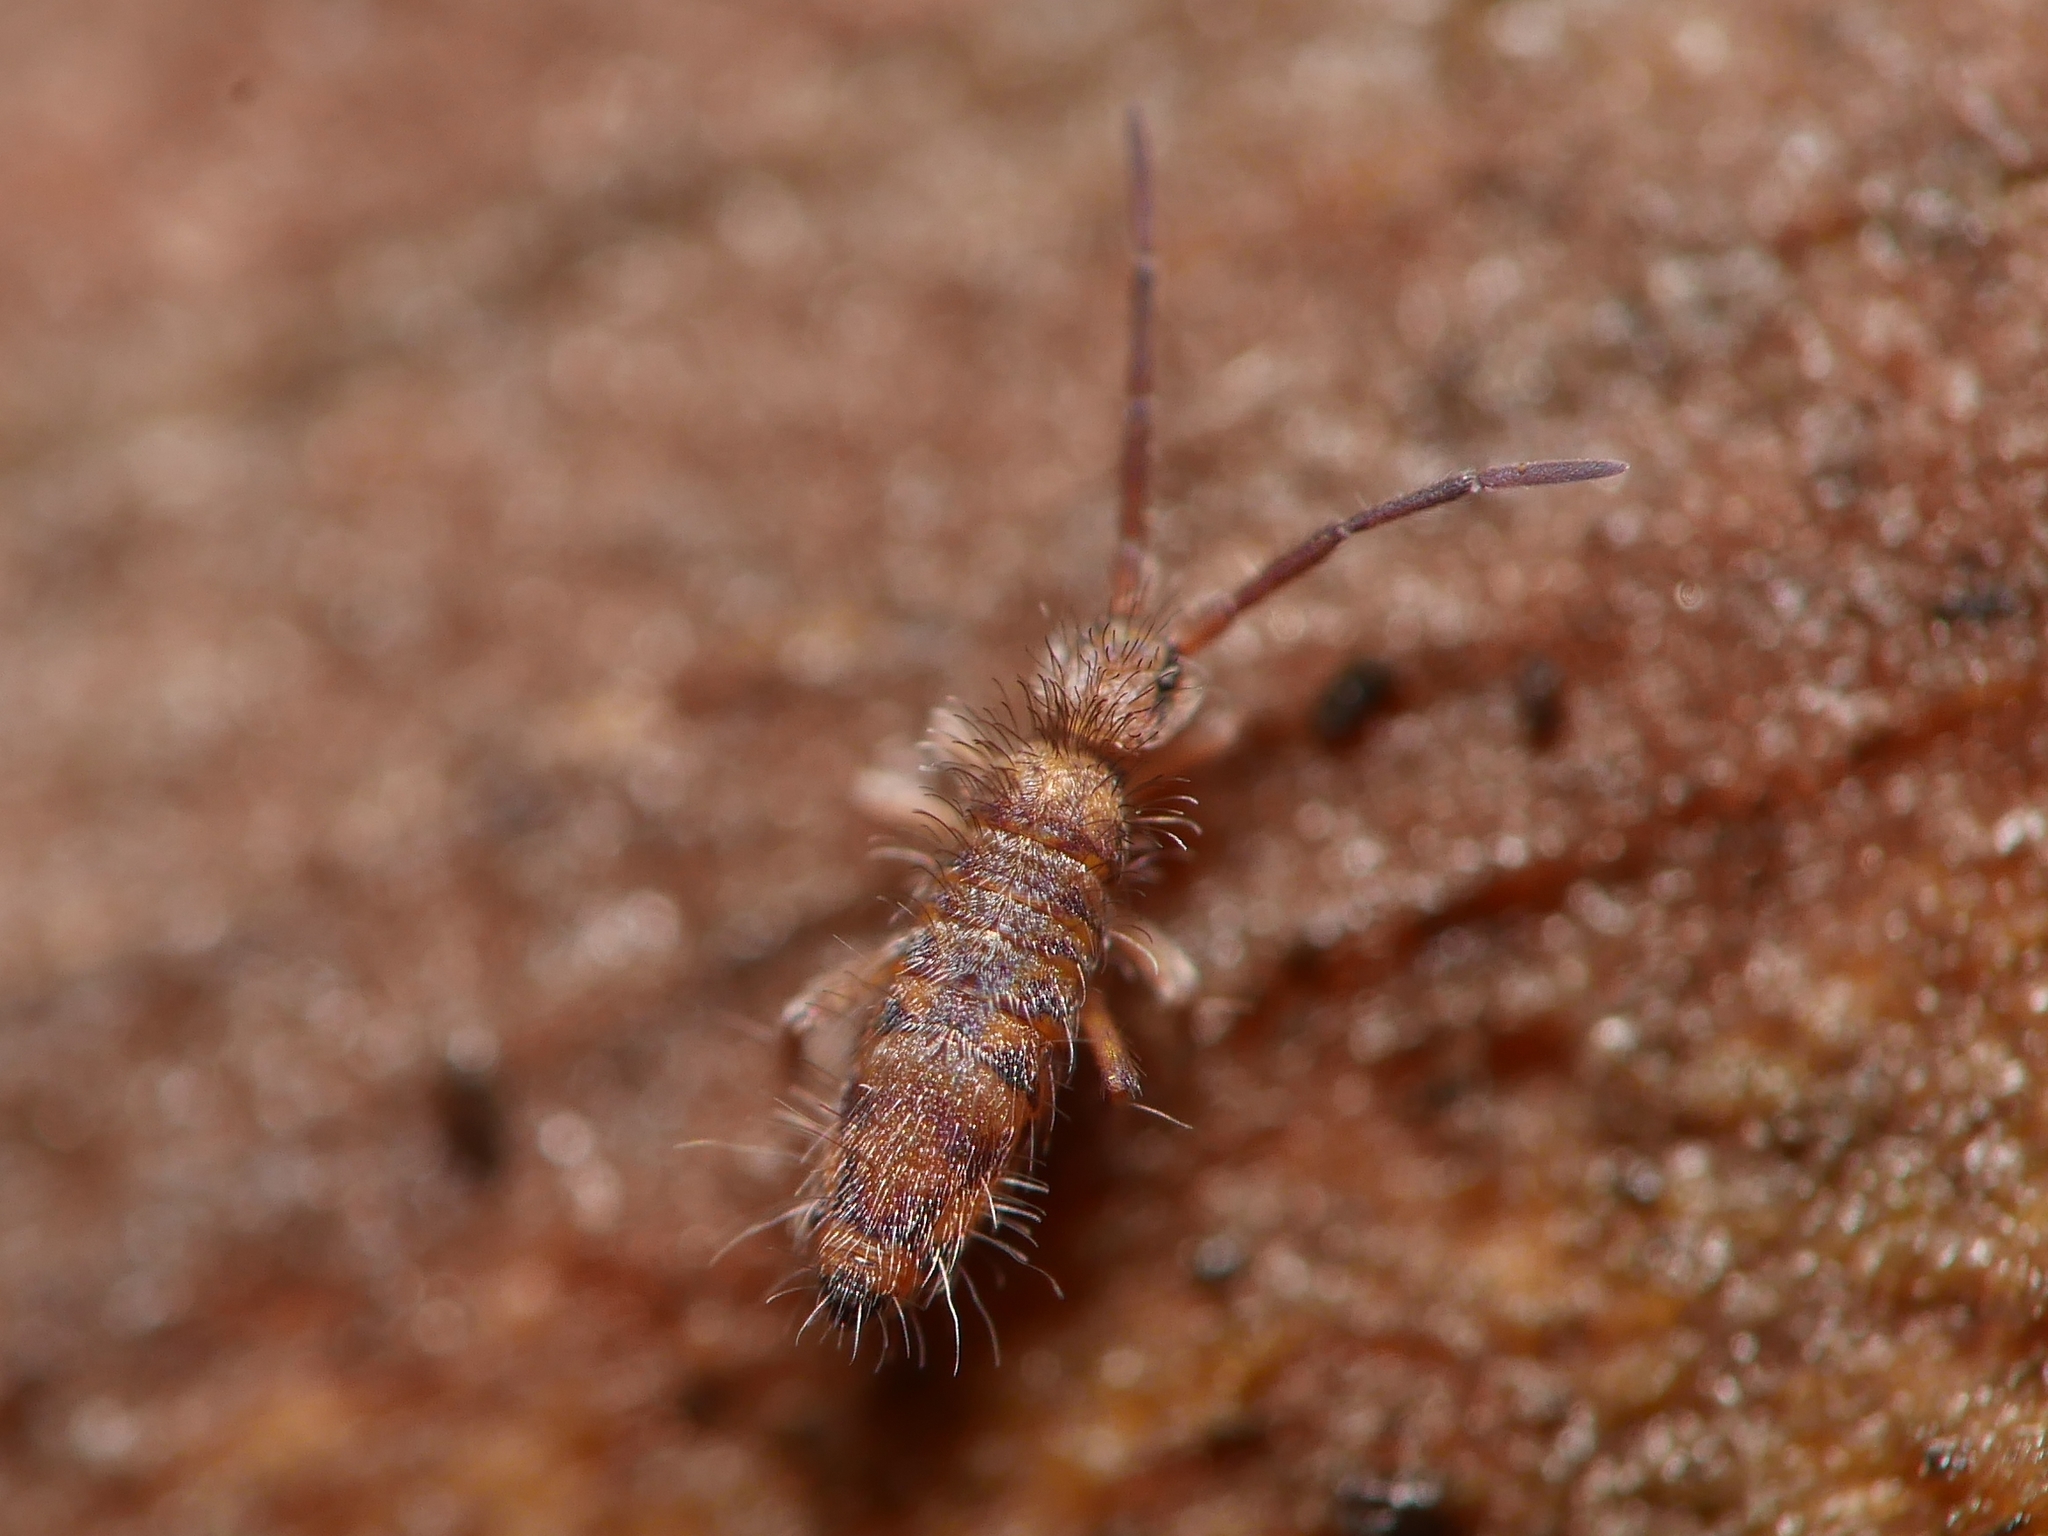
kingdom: Animalia
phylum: Arthropoda
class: Collembola
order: Entomobryomorpha
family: Entomobryidae
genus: Entomobrya
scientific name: Entomobrya multifasciata
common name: Springtail
